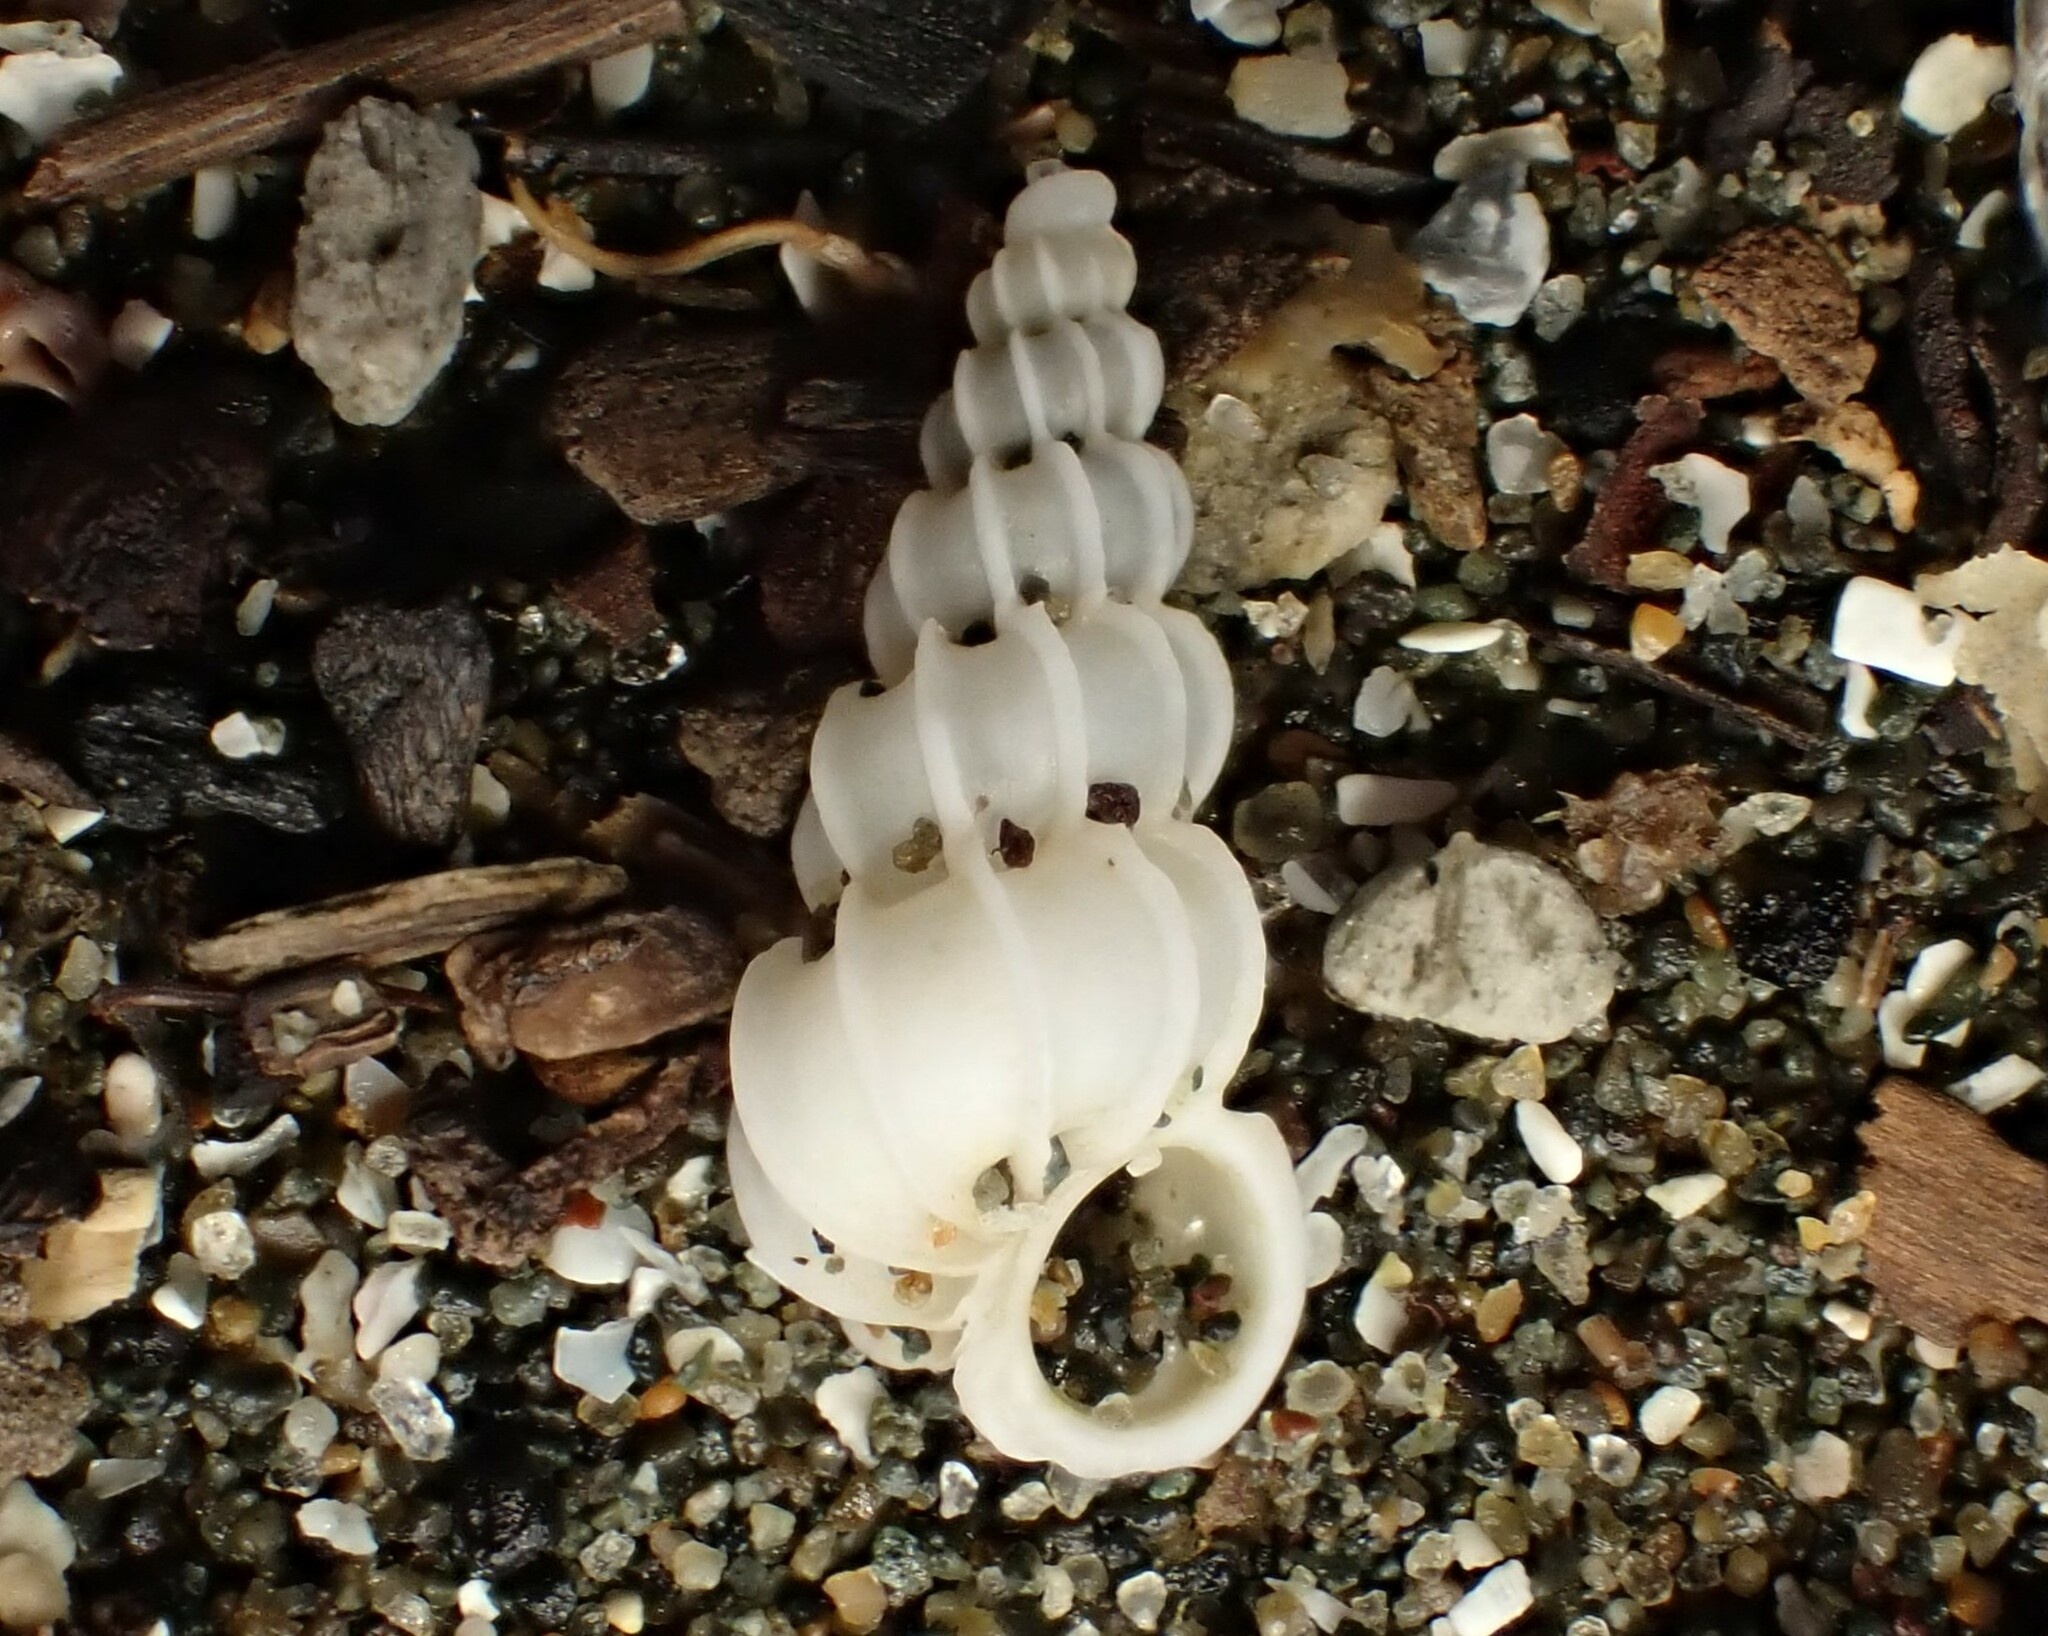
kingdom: Animalia
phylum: Mollusca
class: Gastropoda
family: Epitoniidae
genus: Epitonium
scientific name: Epitonium minorum
